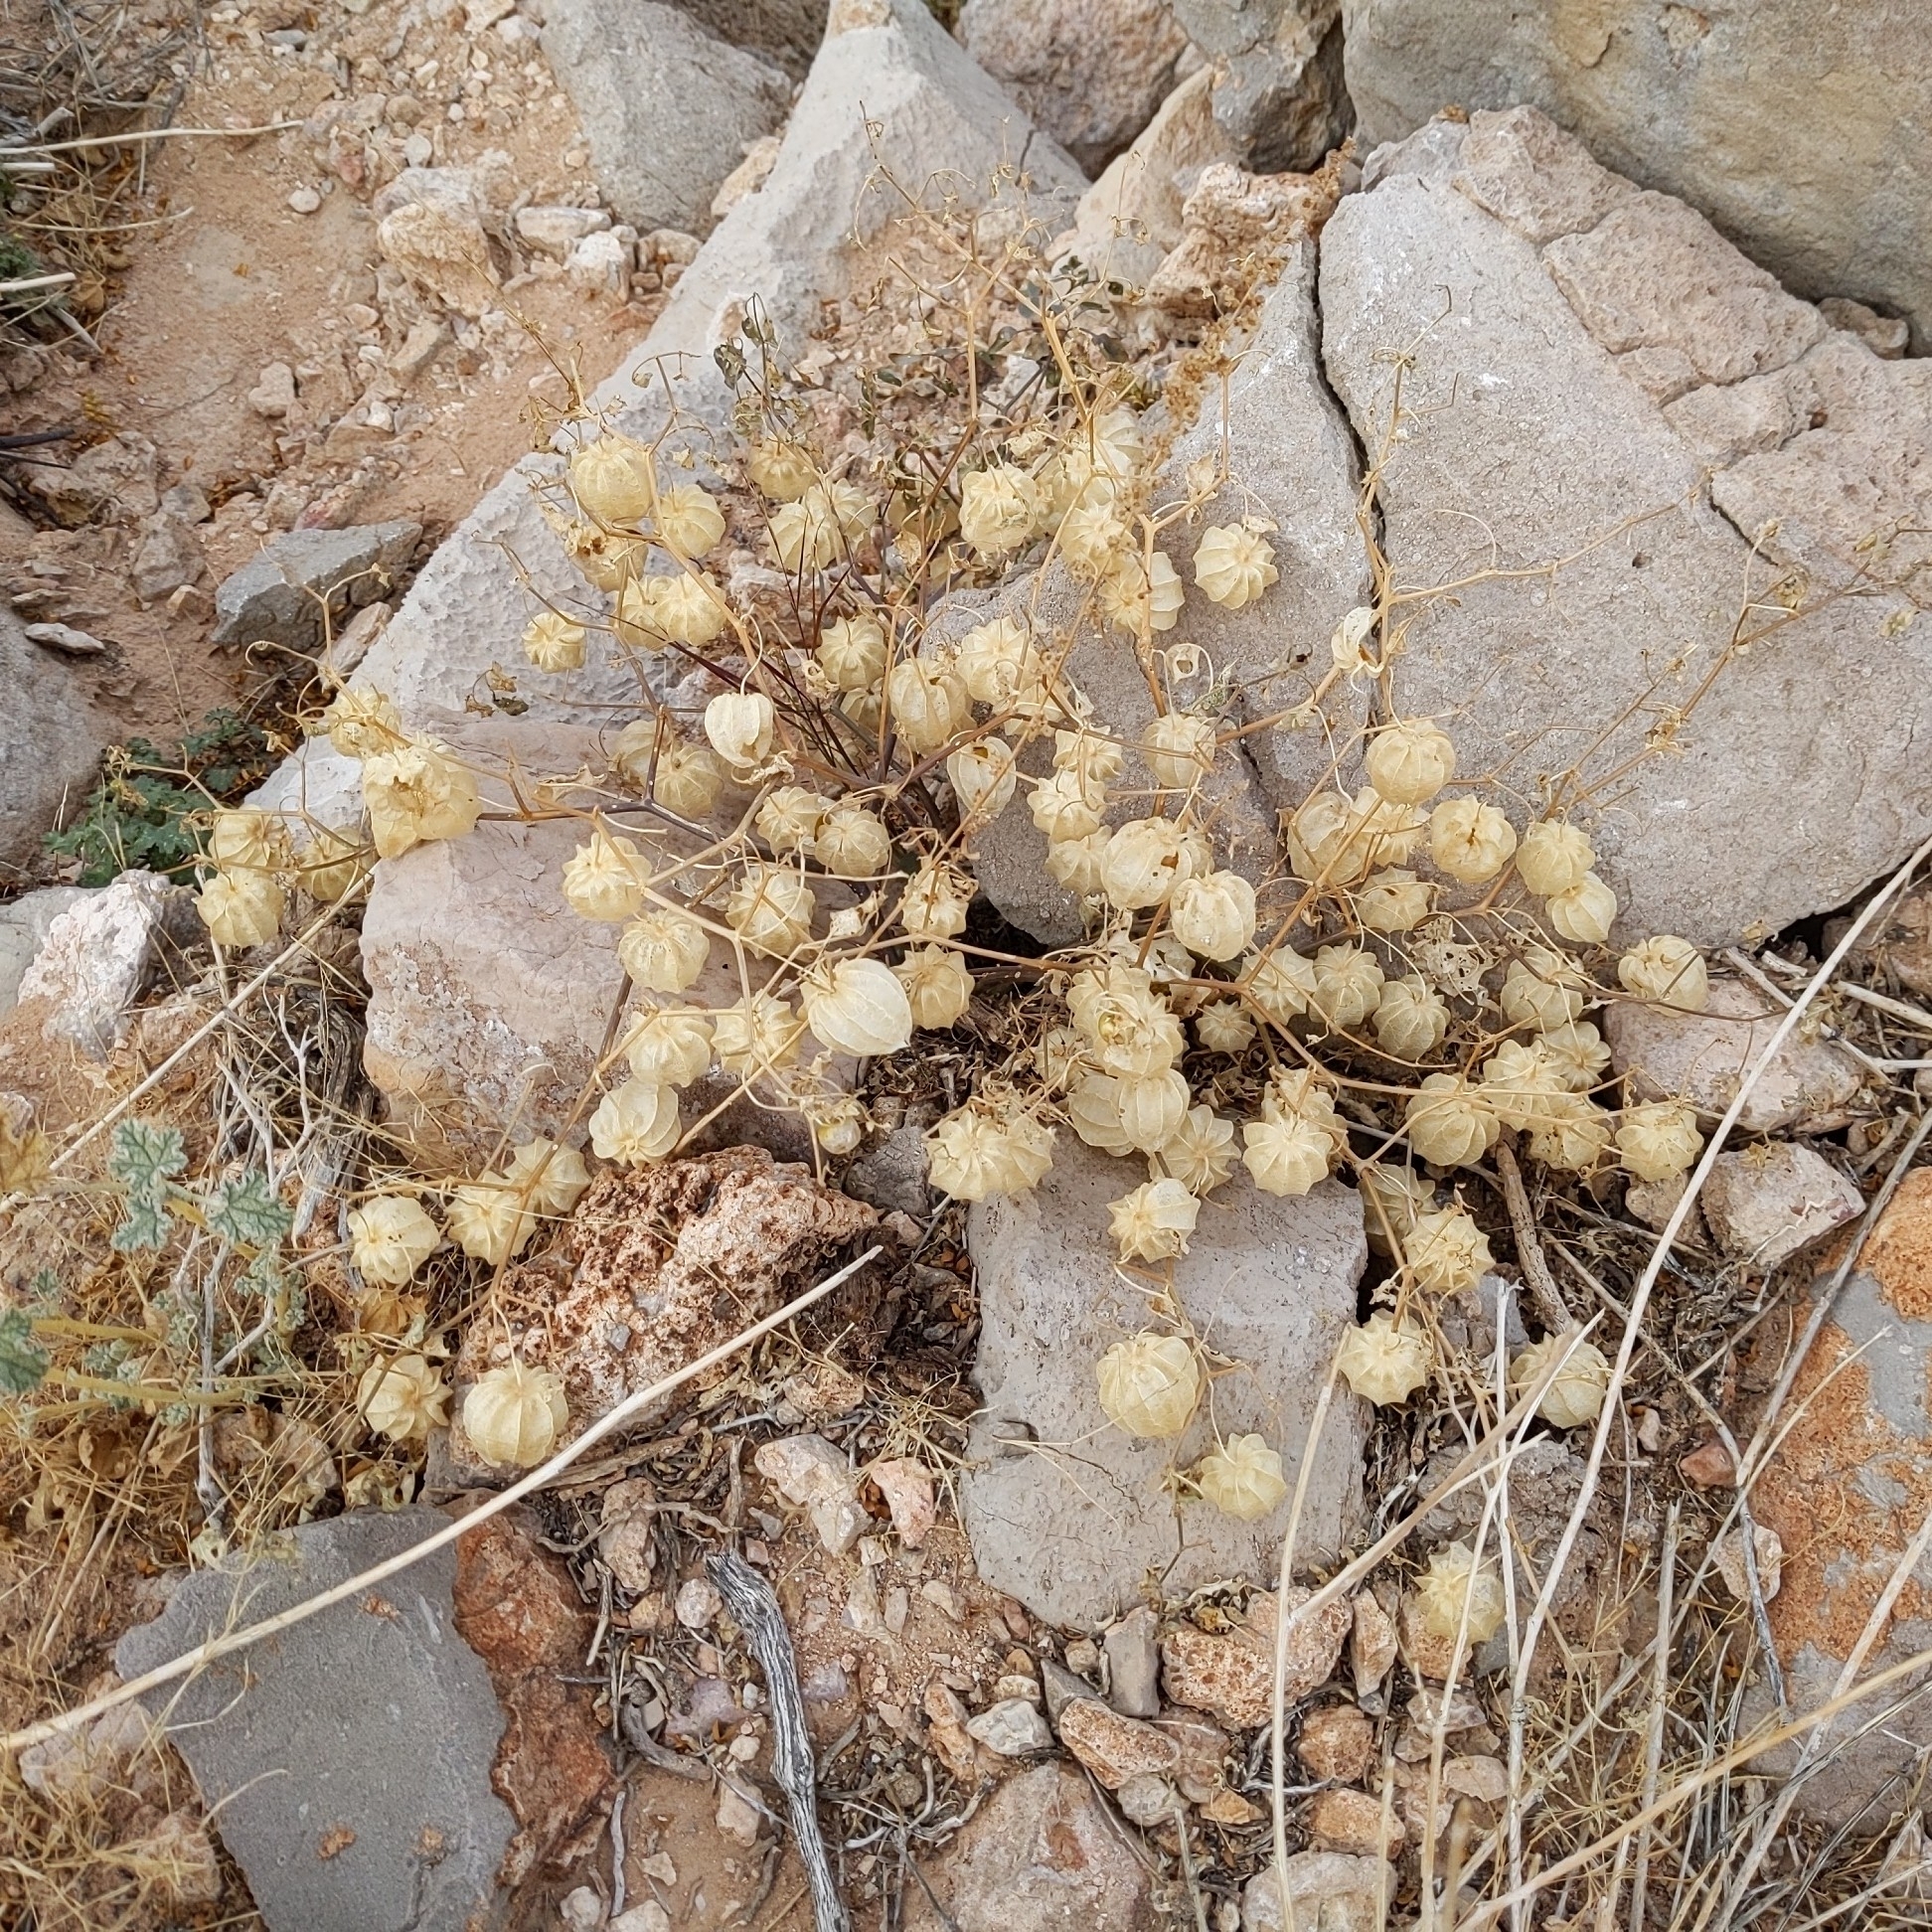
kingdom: Plantae
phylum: Tracheophyta
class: Magnoliopsida
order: Solanales
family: Solanaceae
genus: Physalis
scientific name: Physalis crassifolia
